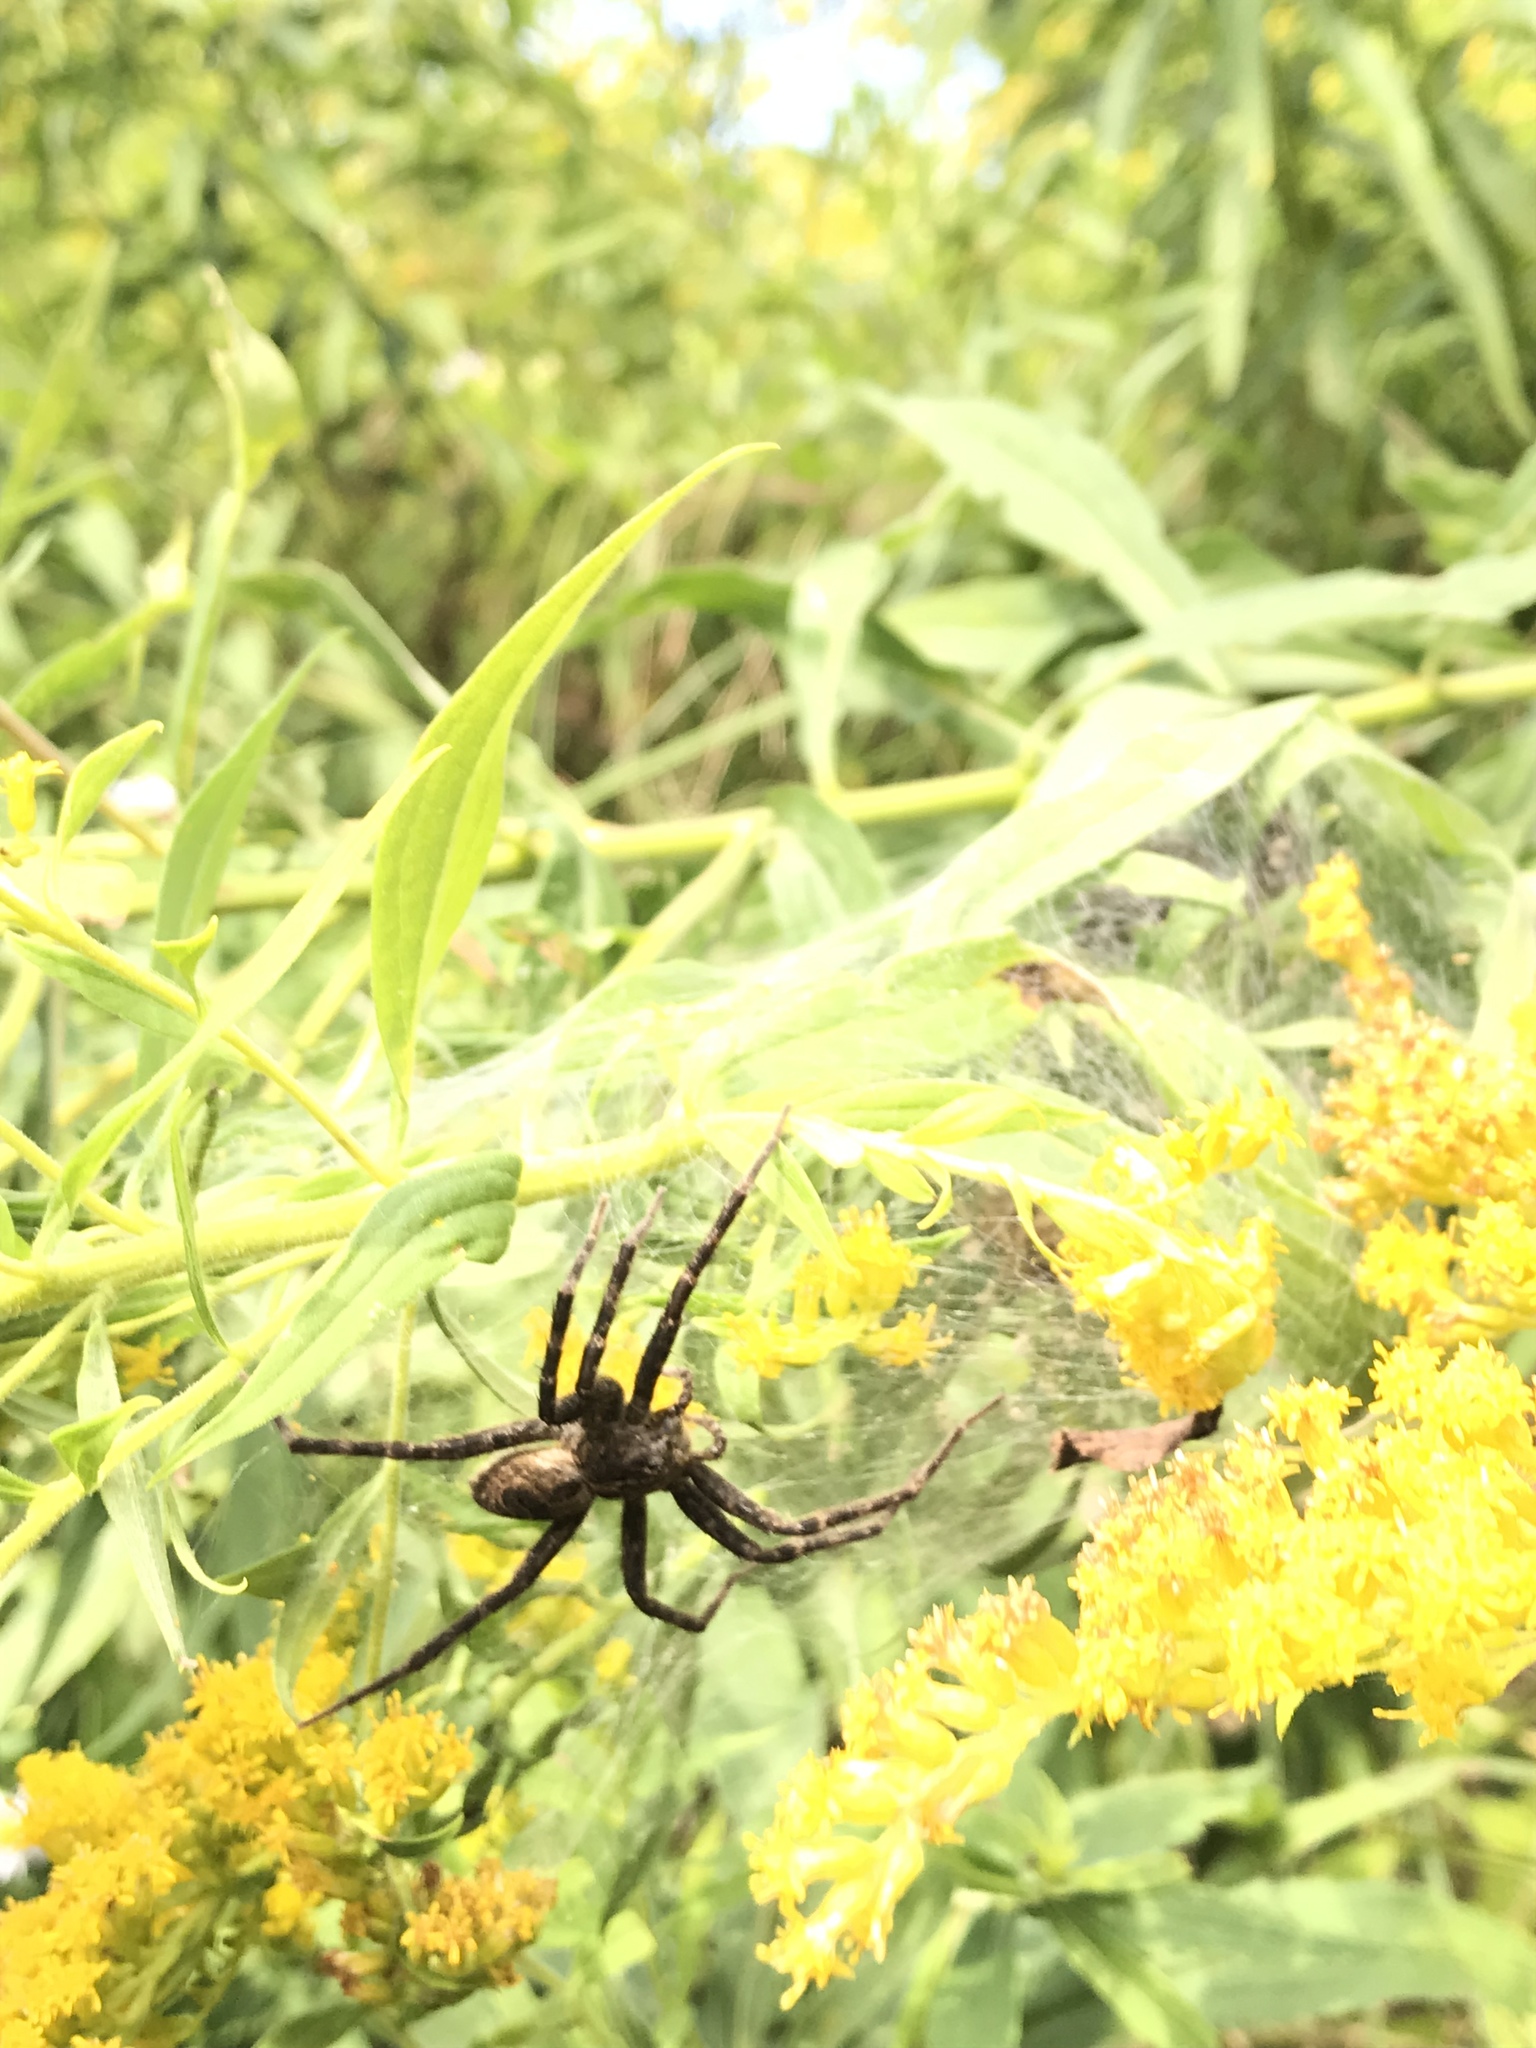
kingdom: Animalia
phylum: Arthropoda
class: Arachnida
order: Araneae
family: Pisauridae
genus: Dolomedes
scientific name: Dolomedes scriptus
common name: Striped fishing spider
